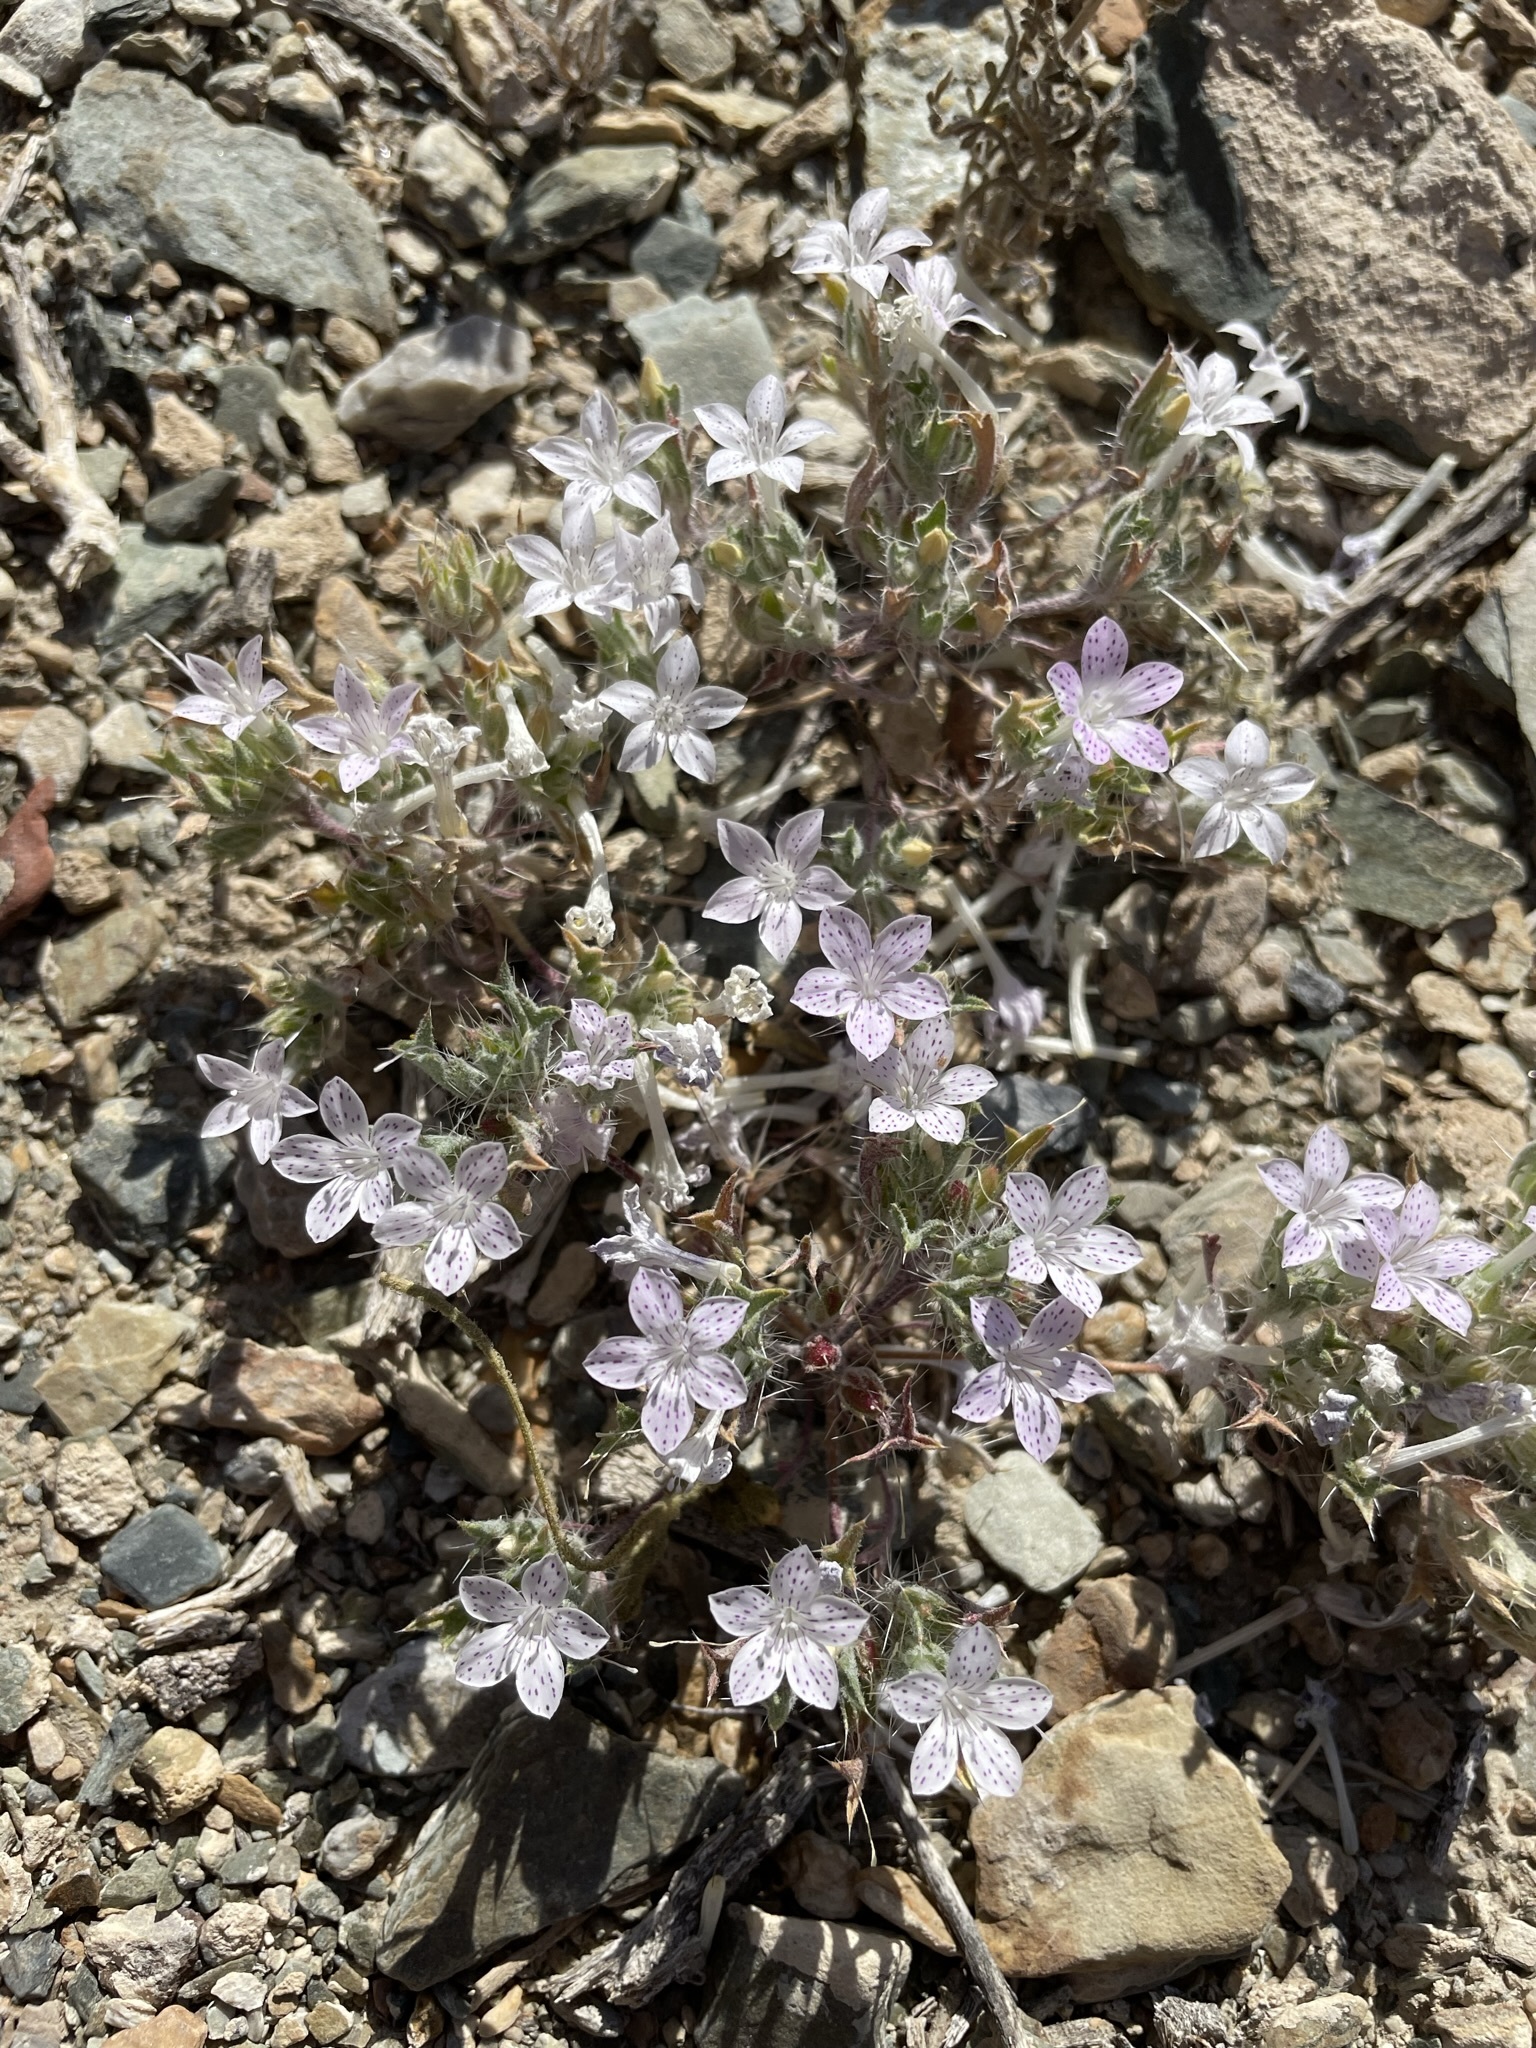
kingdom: Plantae
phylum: Tracheophyta
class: Magnoliopsida
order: Ericales
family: Polemoniaceae
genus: Langloisia
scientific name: Langloisia setosissima
